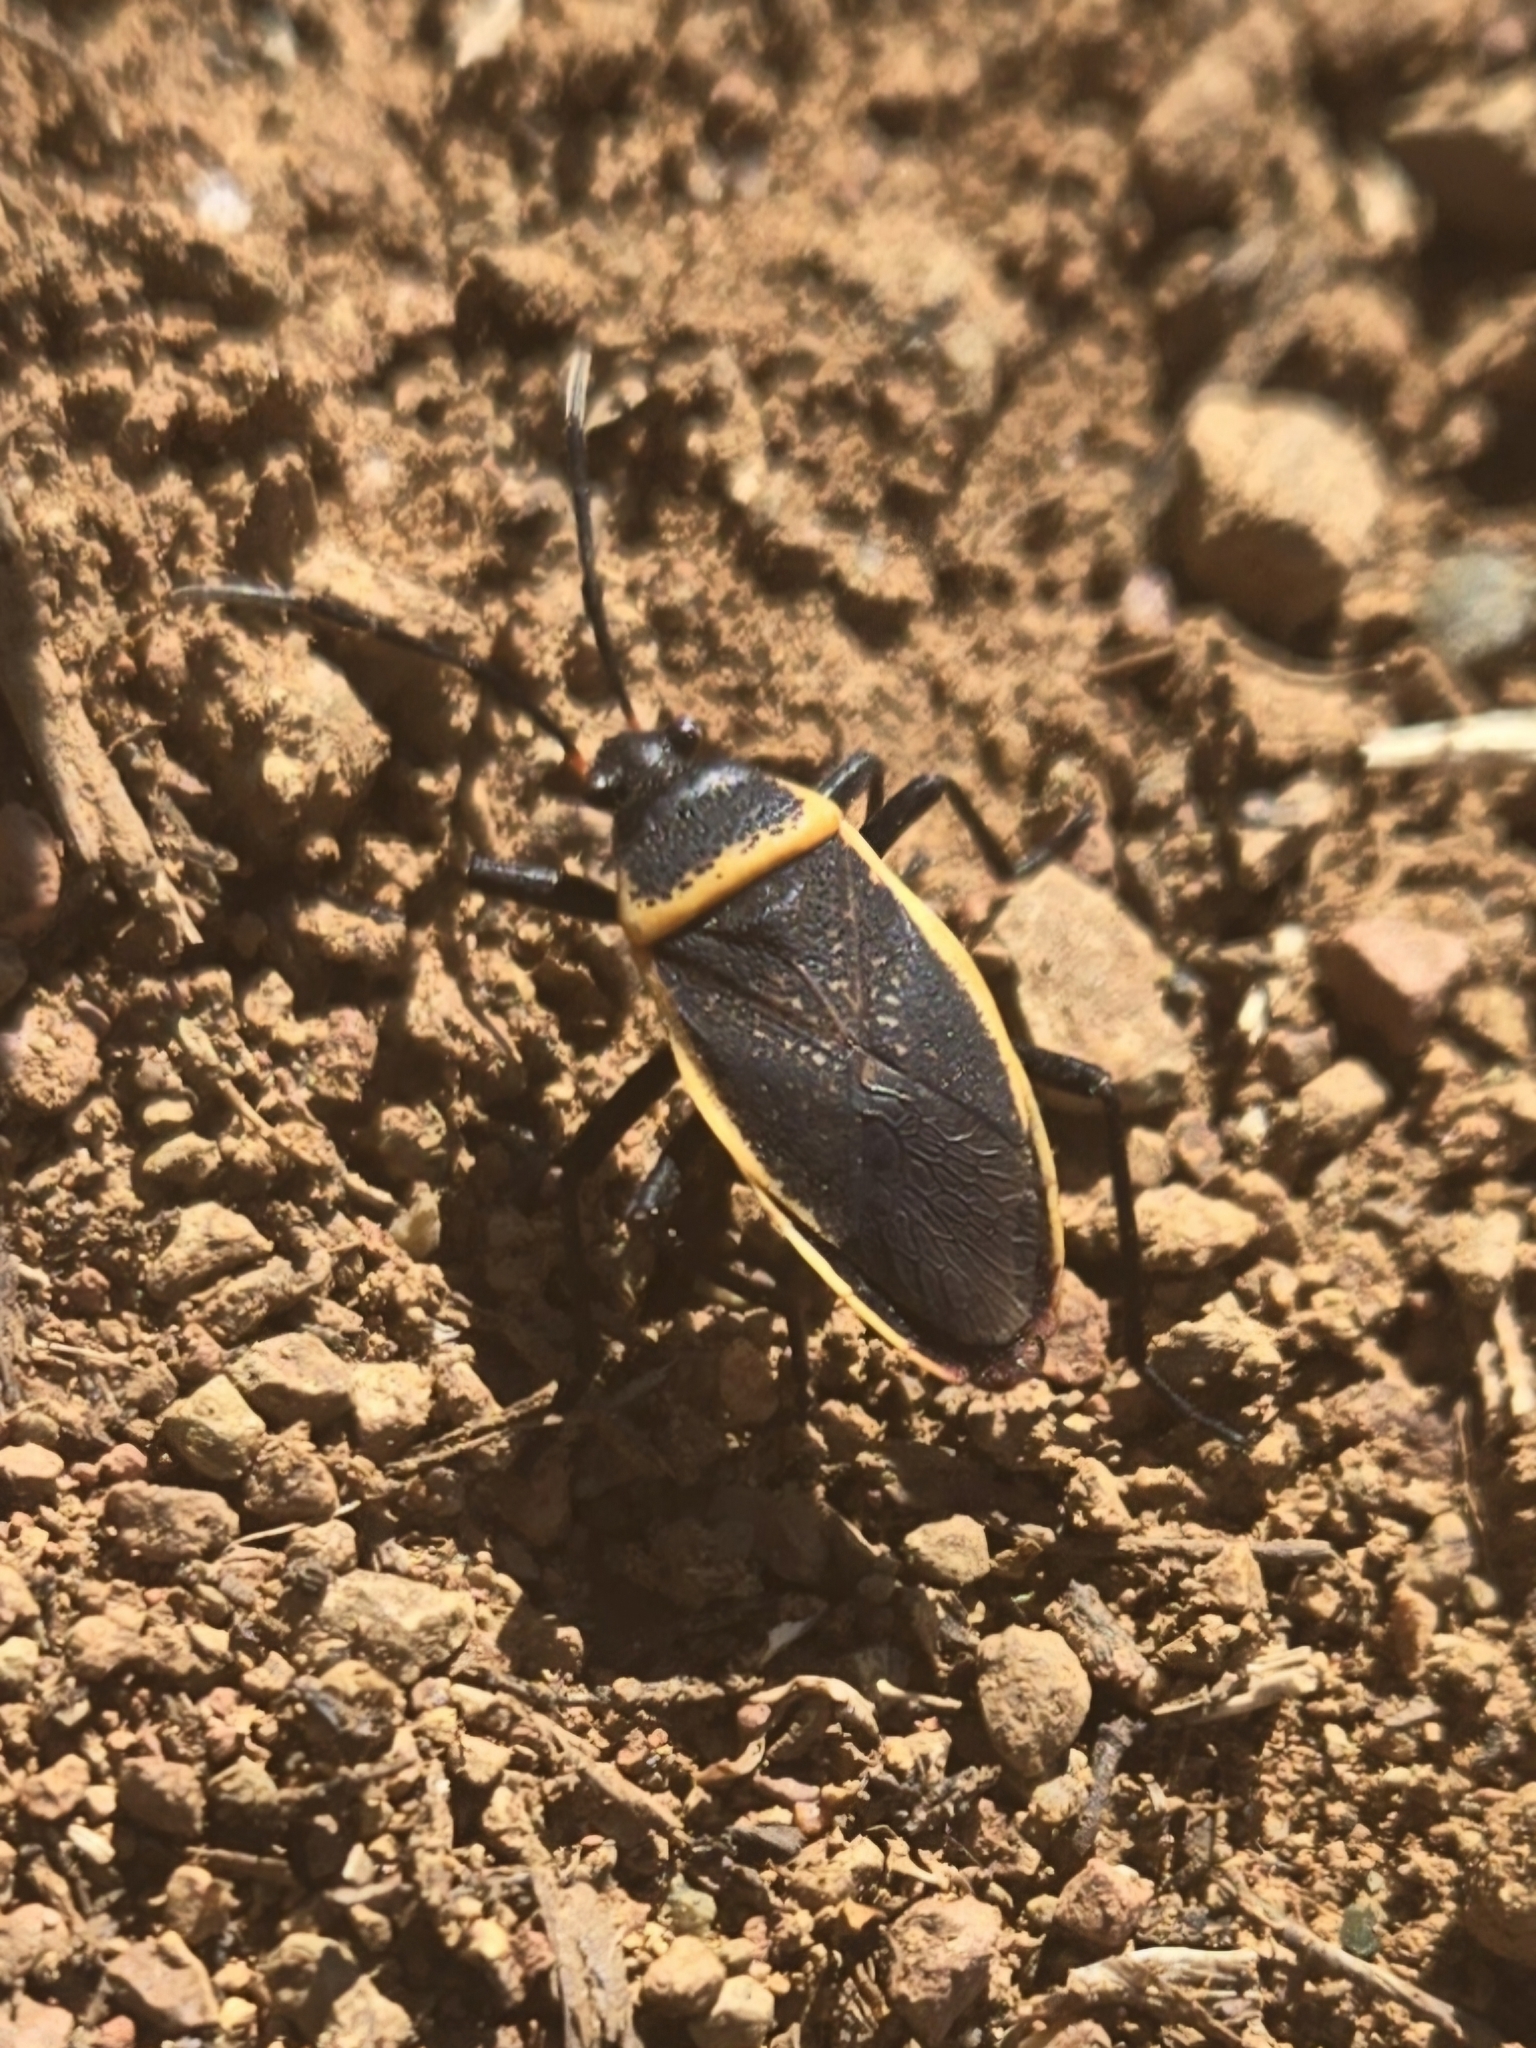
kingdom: Animalia
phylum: Arthropoda
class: Insecta
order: Hemiptera
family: Largidae
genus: Largus
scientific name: Largus californicus
